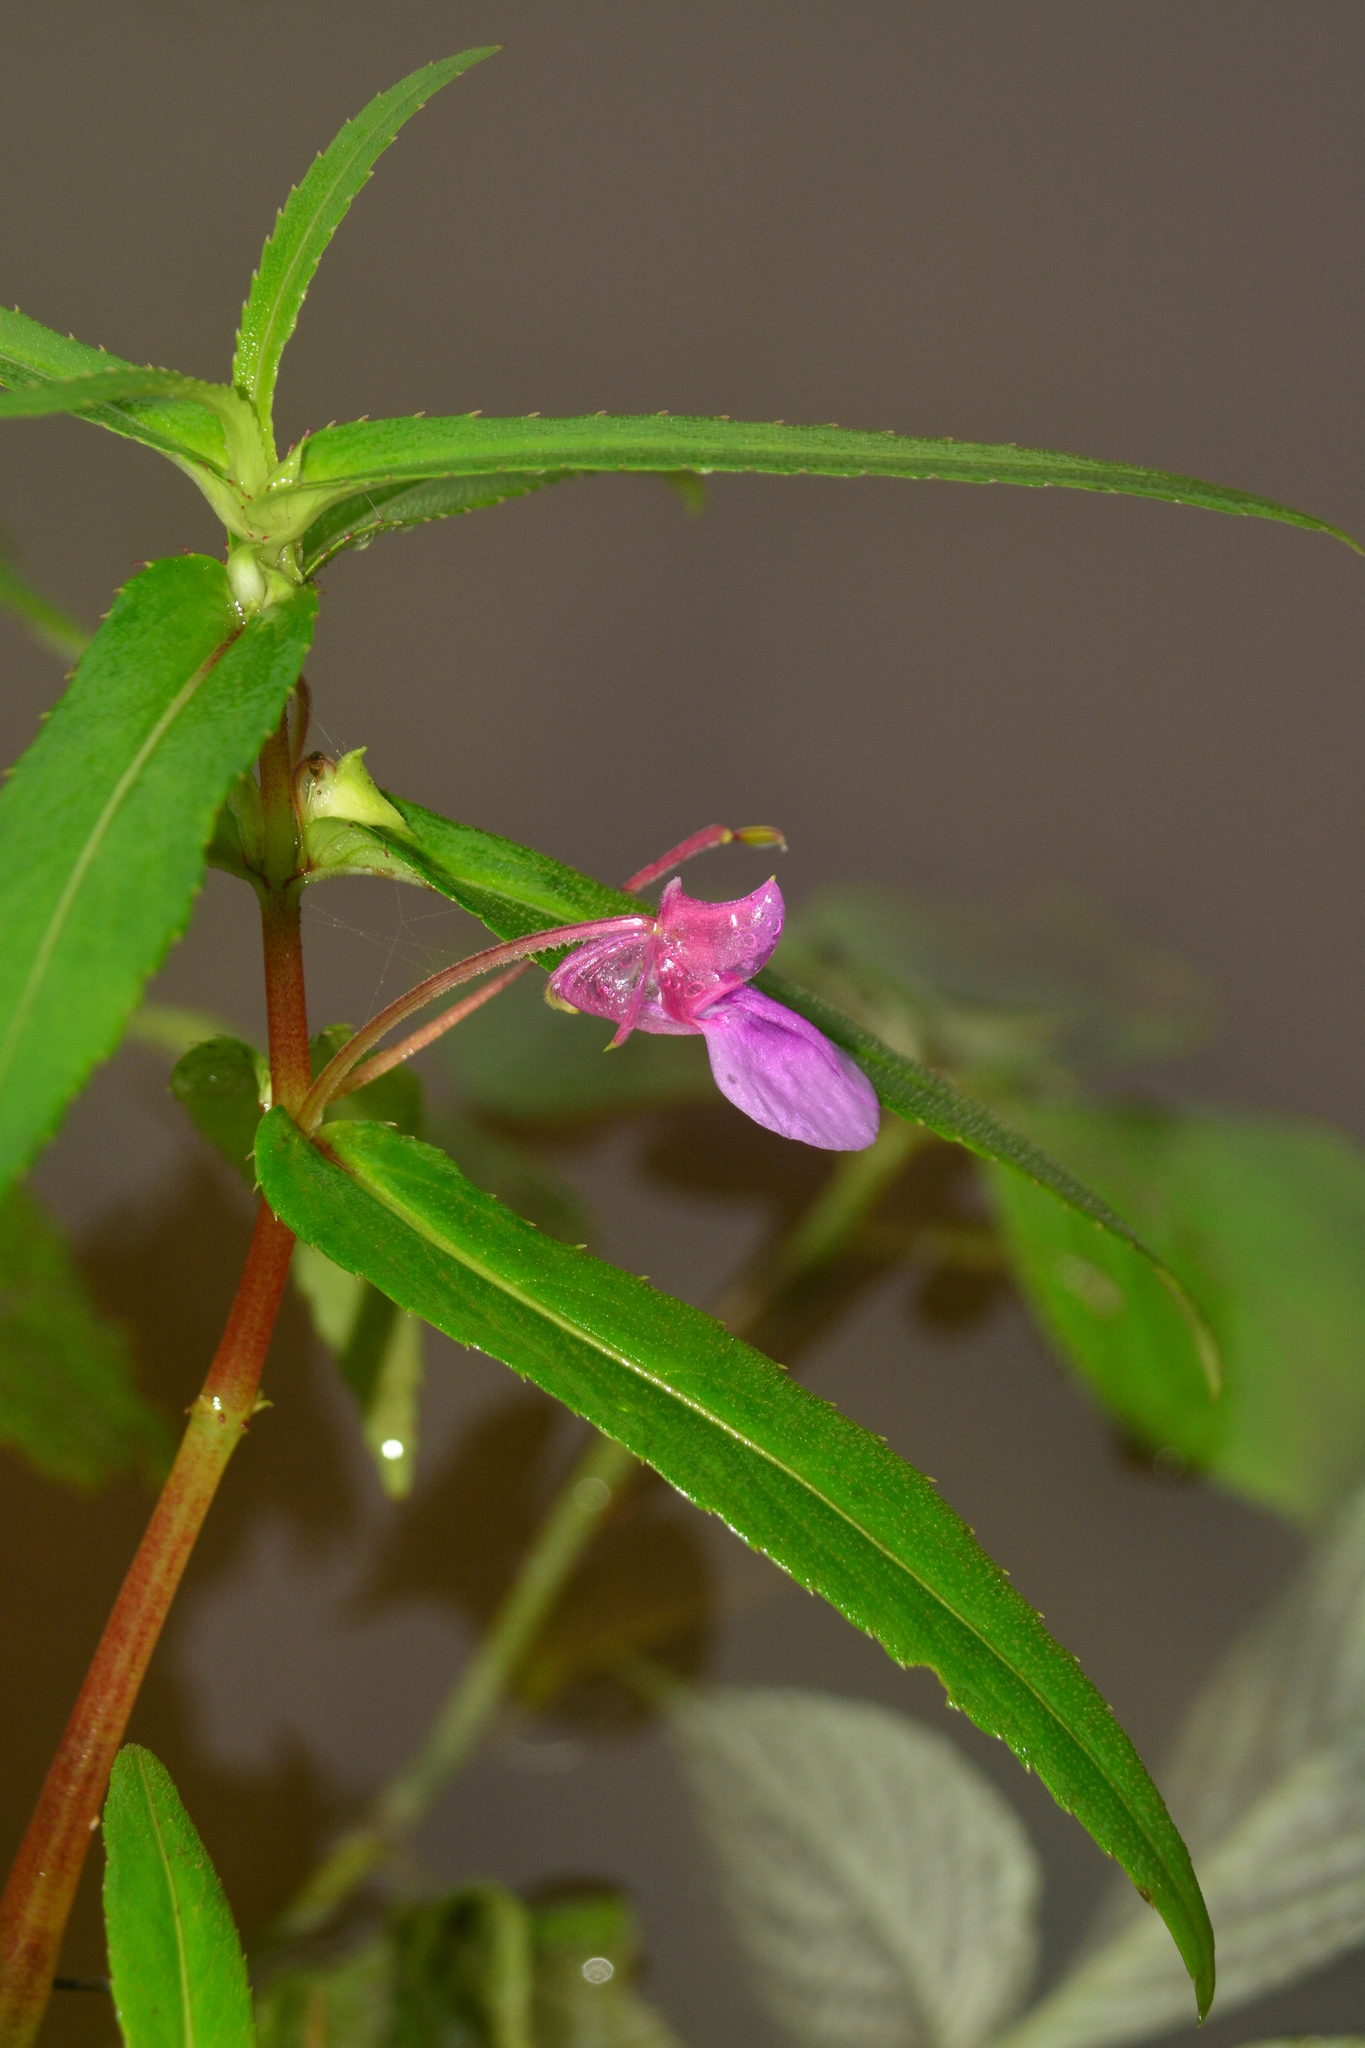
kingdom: Plantae
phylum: Tracheophyta
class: Magnoliopsida
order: Ericales
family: Balsaminaceae
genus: Impatiens
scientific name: Impatiens tomentosa
